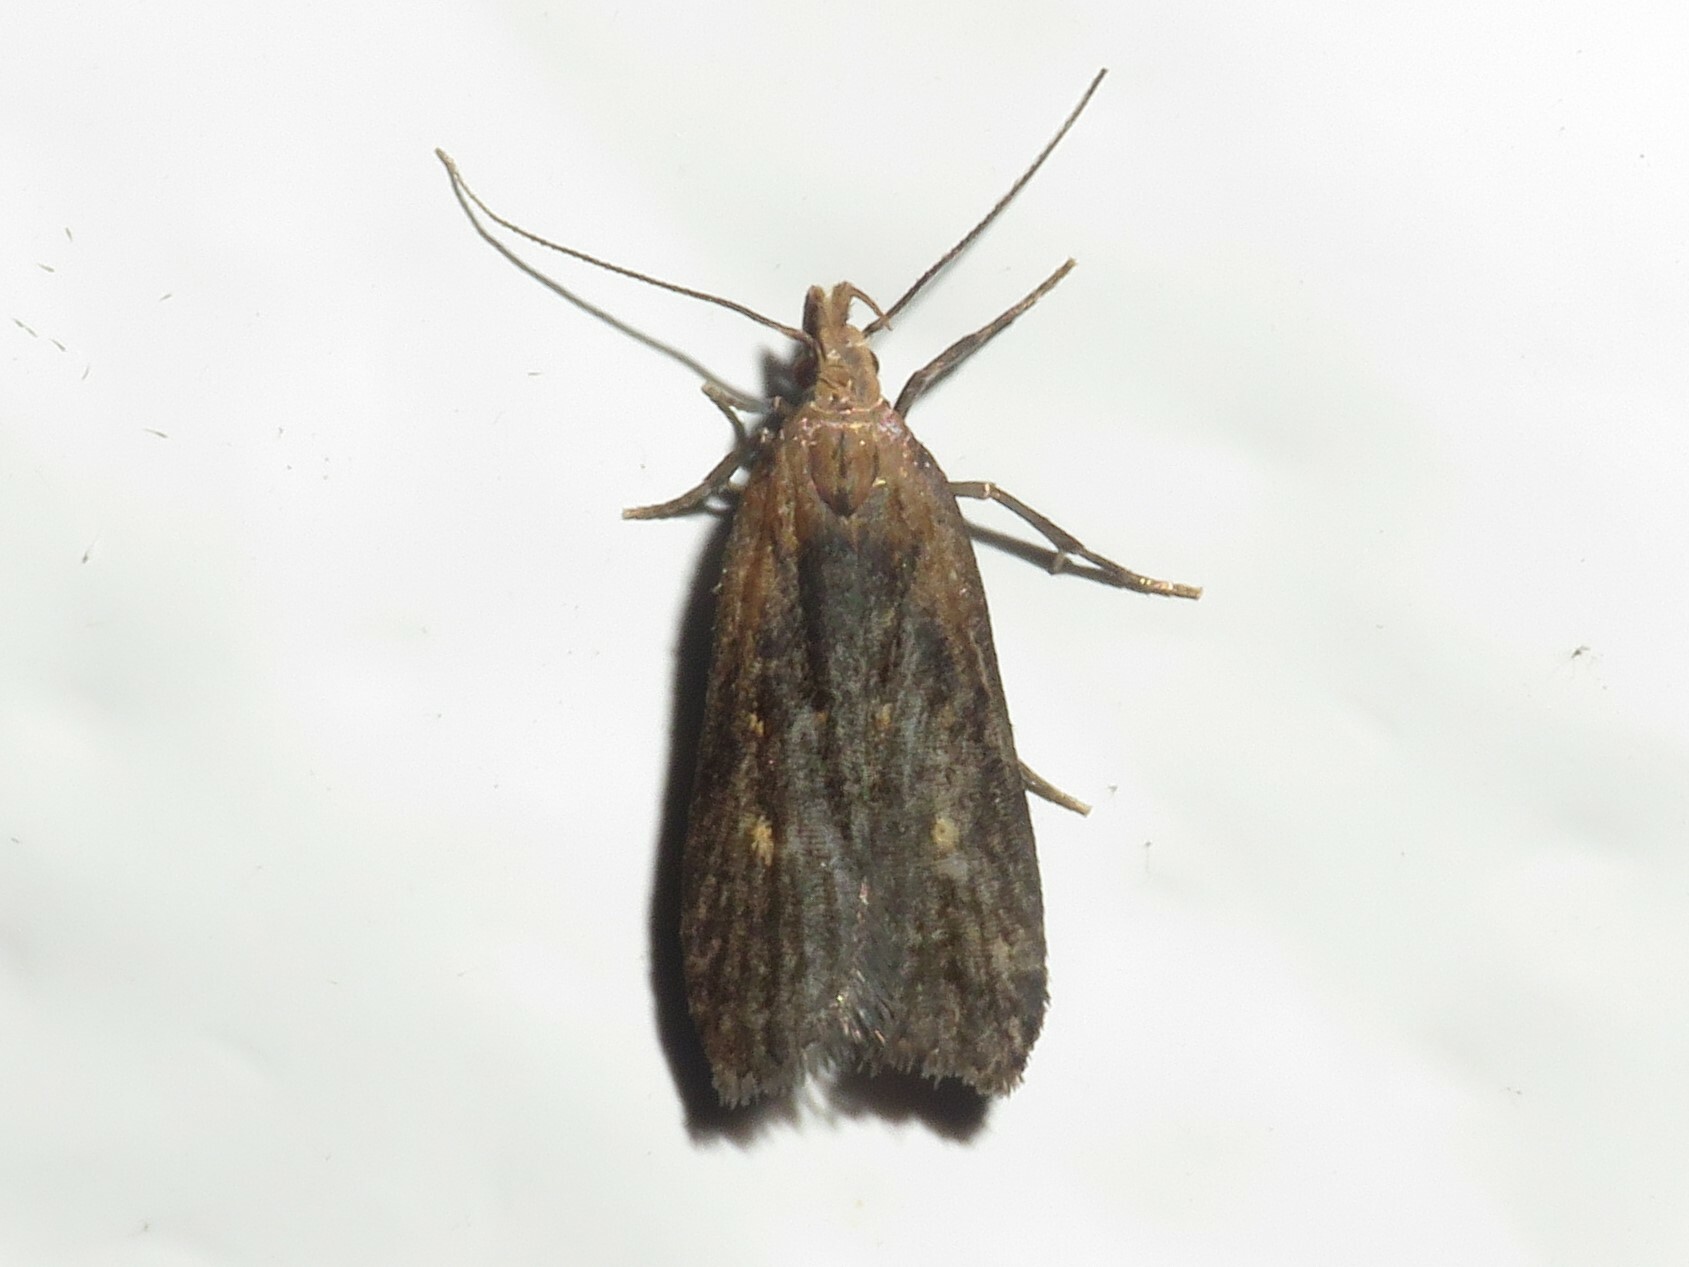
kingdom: Animalia
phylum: Arthropoda
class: Insecta
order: Lepidoptera
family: Gelechiidae
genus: Dichomeris
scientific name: Dichomeris copa
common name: Copa dichomeris moth
